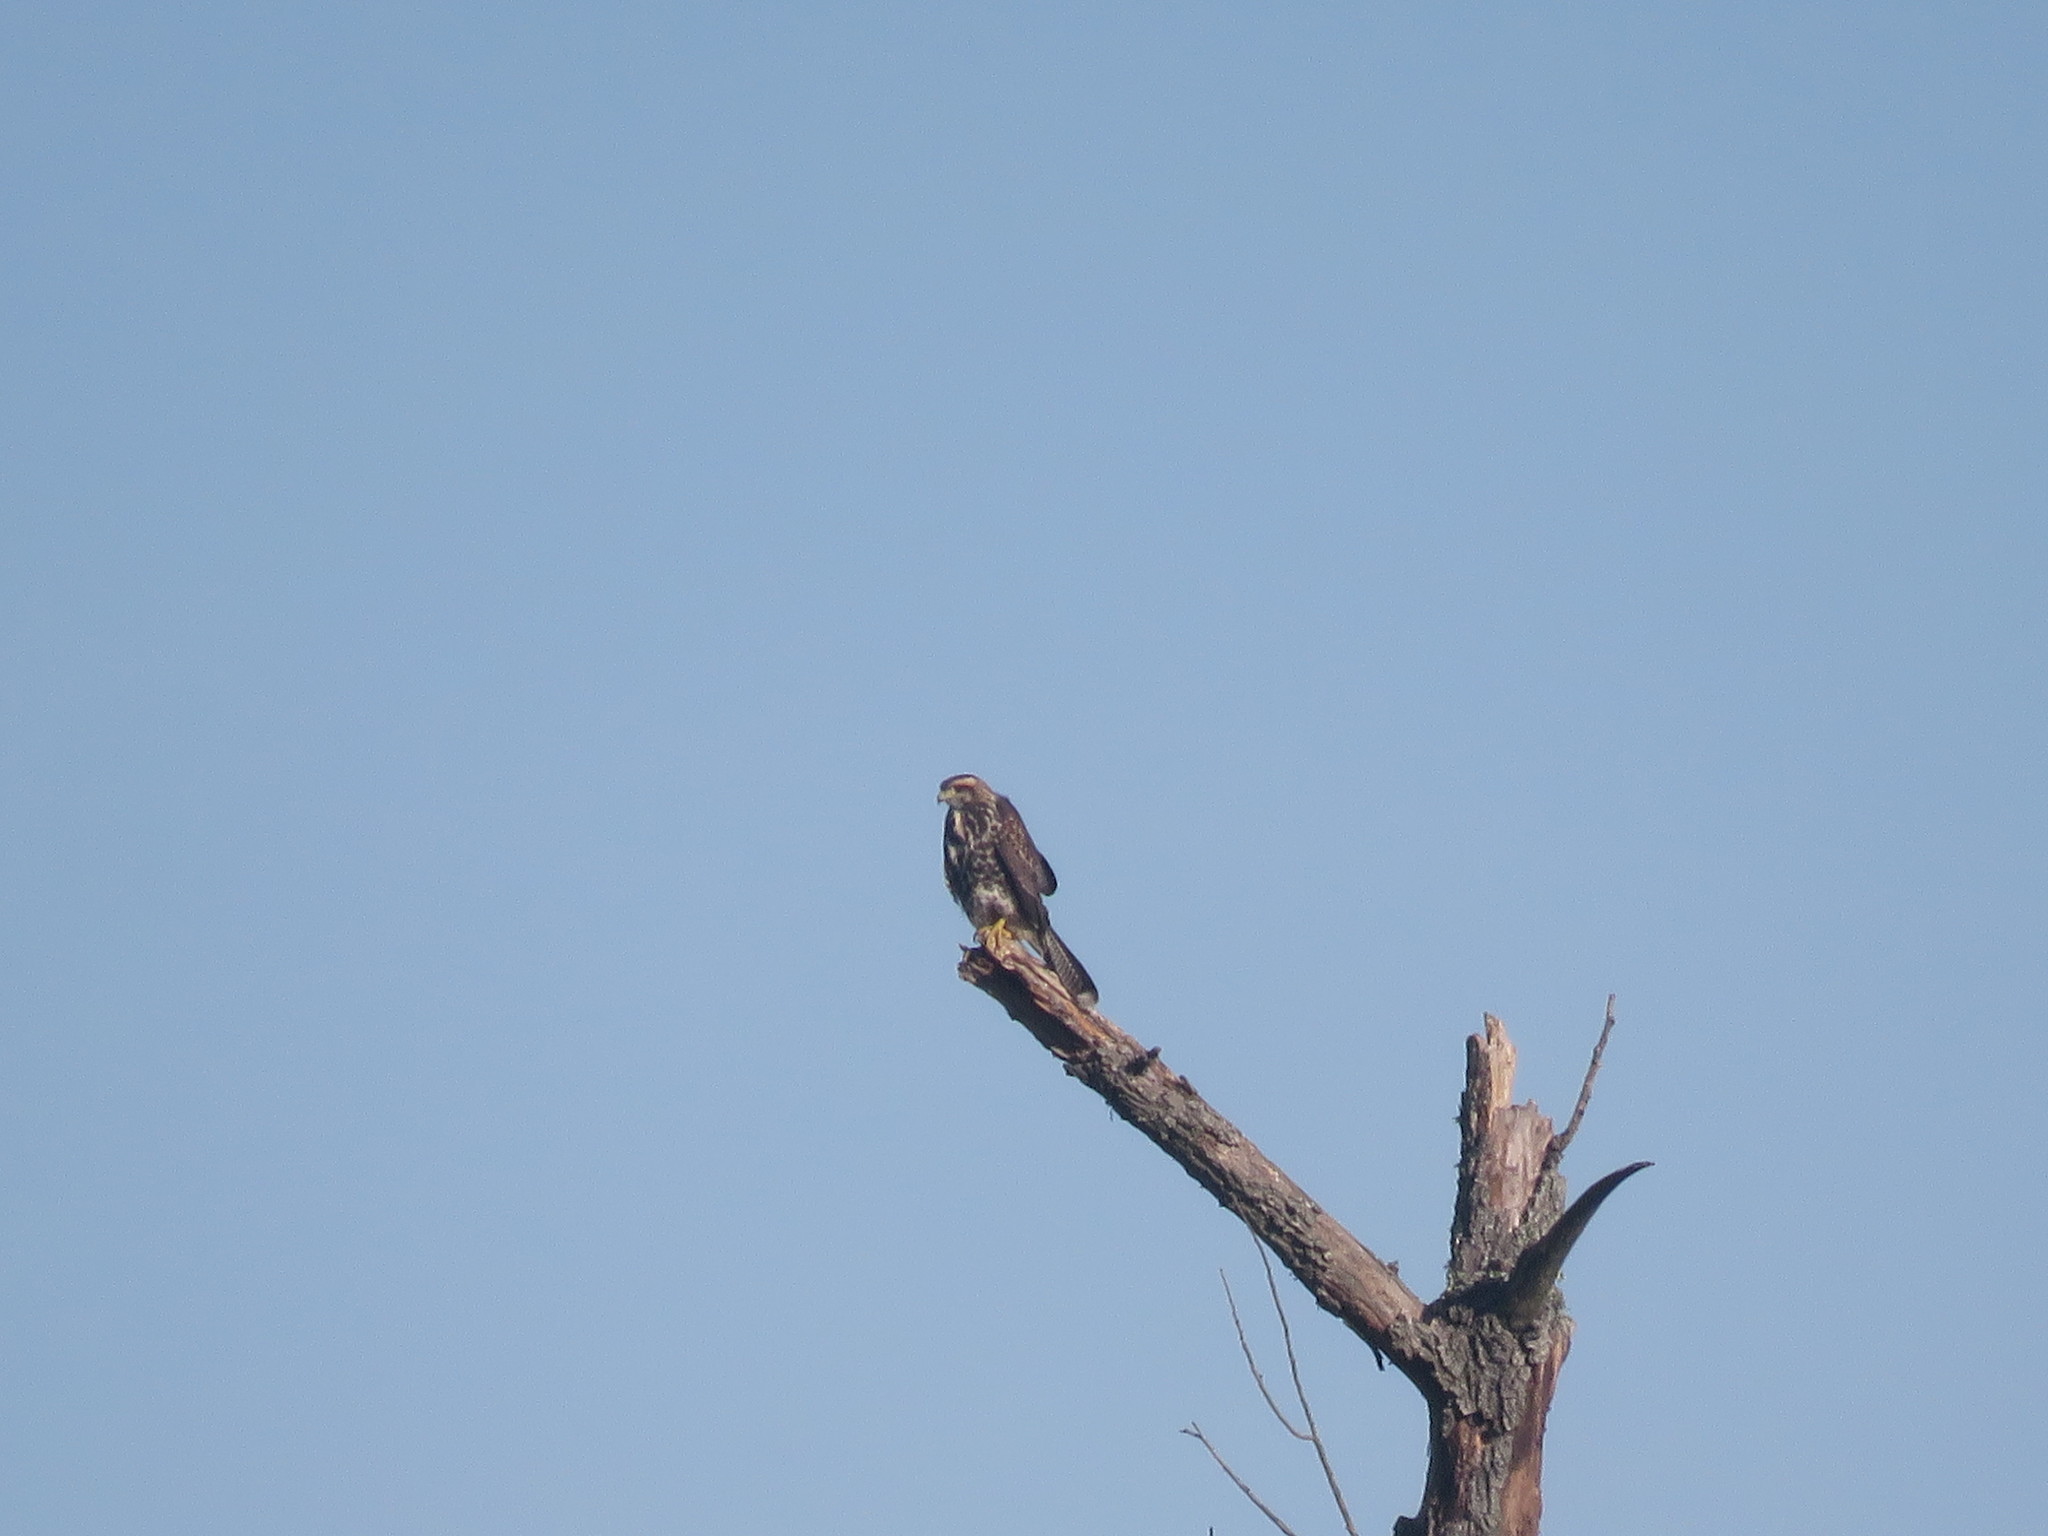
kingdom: Animalia
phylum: Chordata
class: Aves
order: Accipitriformes
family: Accipitridae
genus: Parabuteo
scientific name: Parabuteo unicinctus
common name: Harris's hawk
